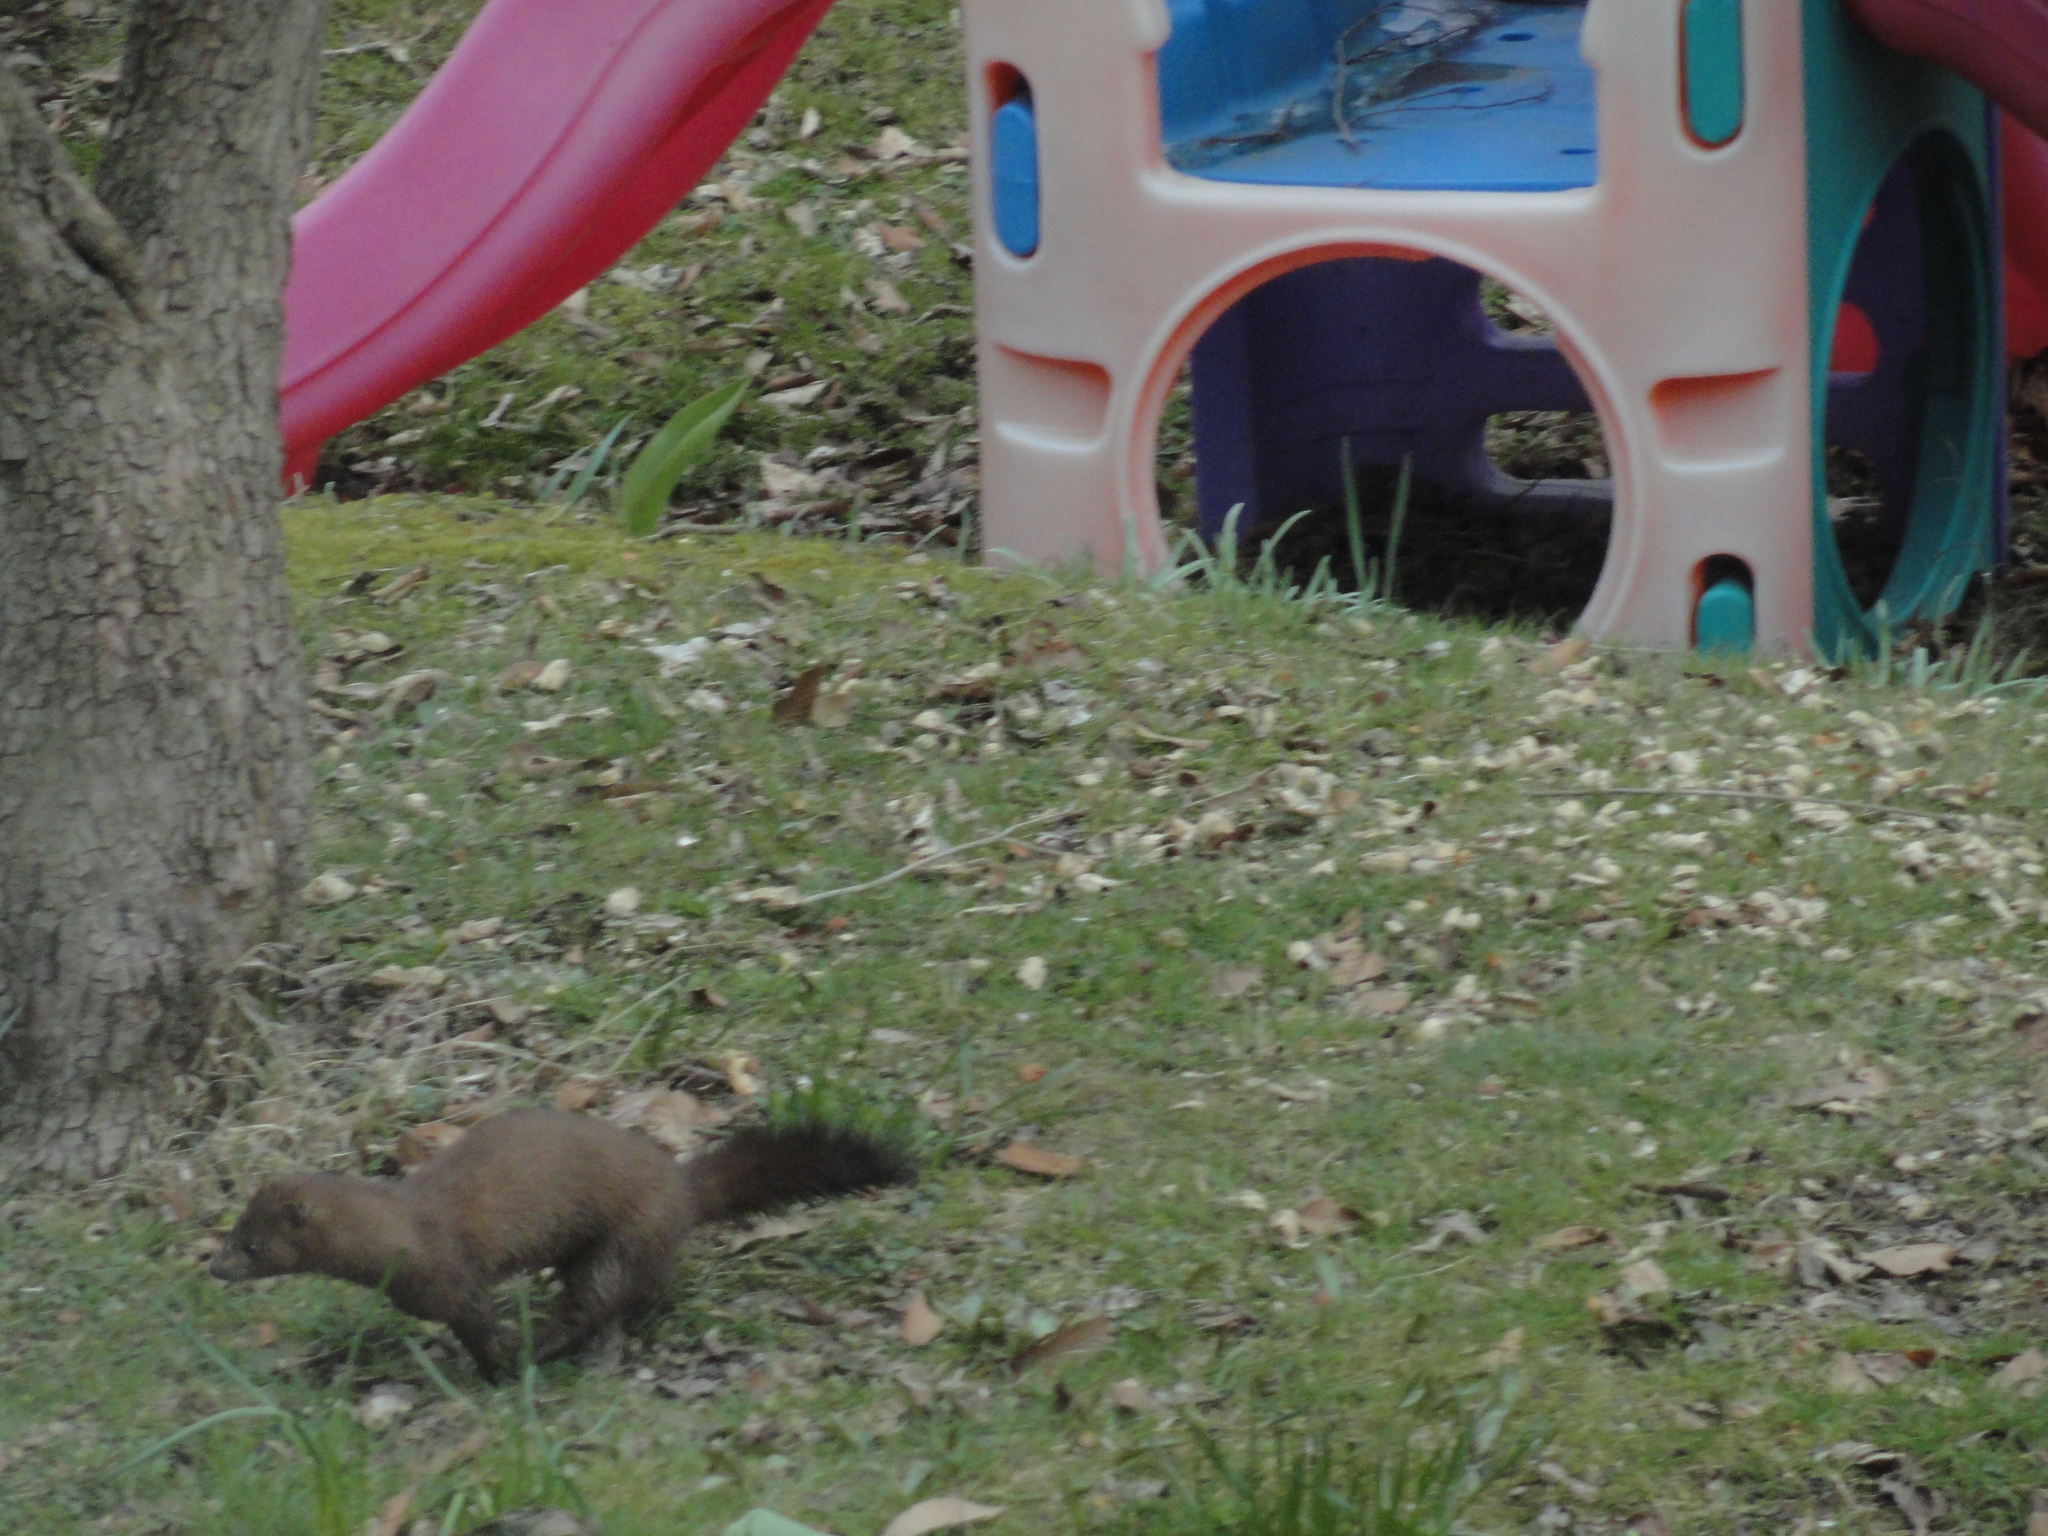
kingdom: Animalia
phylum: Chordata
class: Mammalia
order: Carnivora
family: Mustelidae
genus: Mustela
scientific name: Mustela
